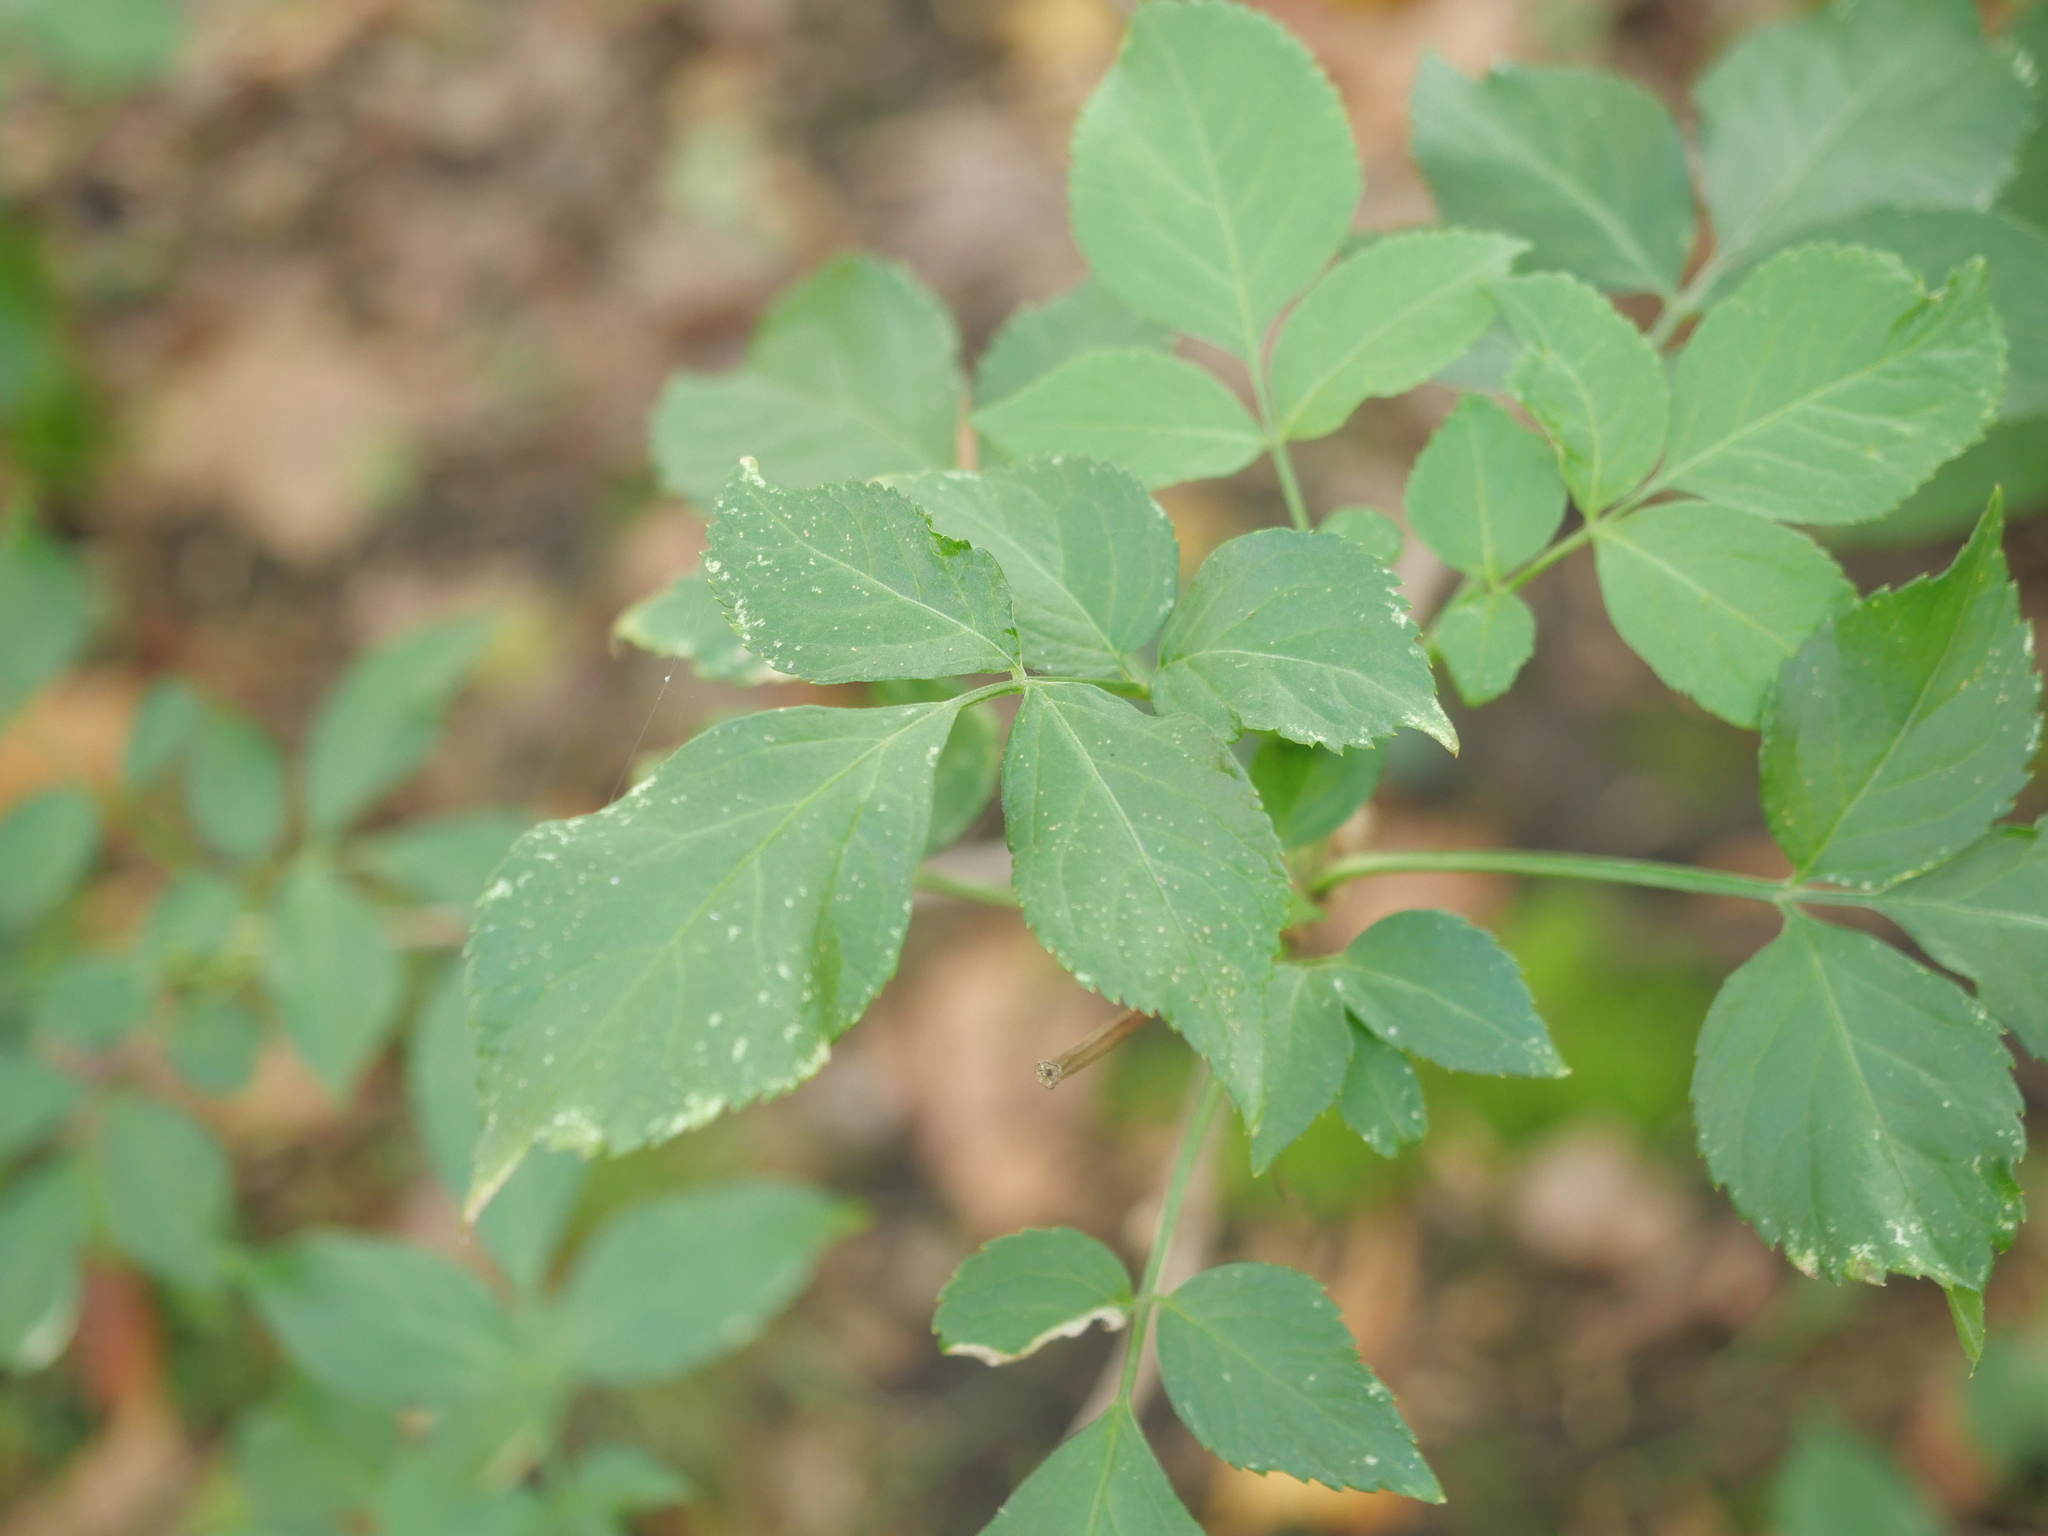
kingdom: Plantae
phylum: Tracheophyta
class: Magnoliopsida
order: Dipsacales
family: Viburnaceae
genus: Sambucus
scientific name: Sambucus nigra
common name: Elder
